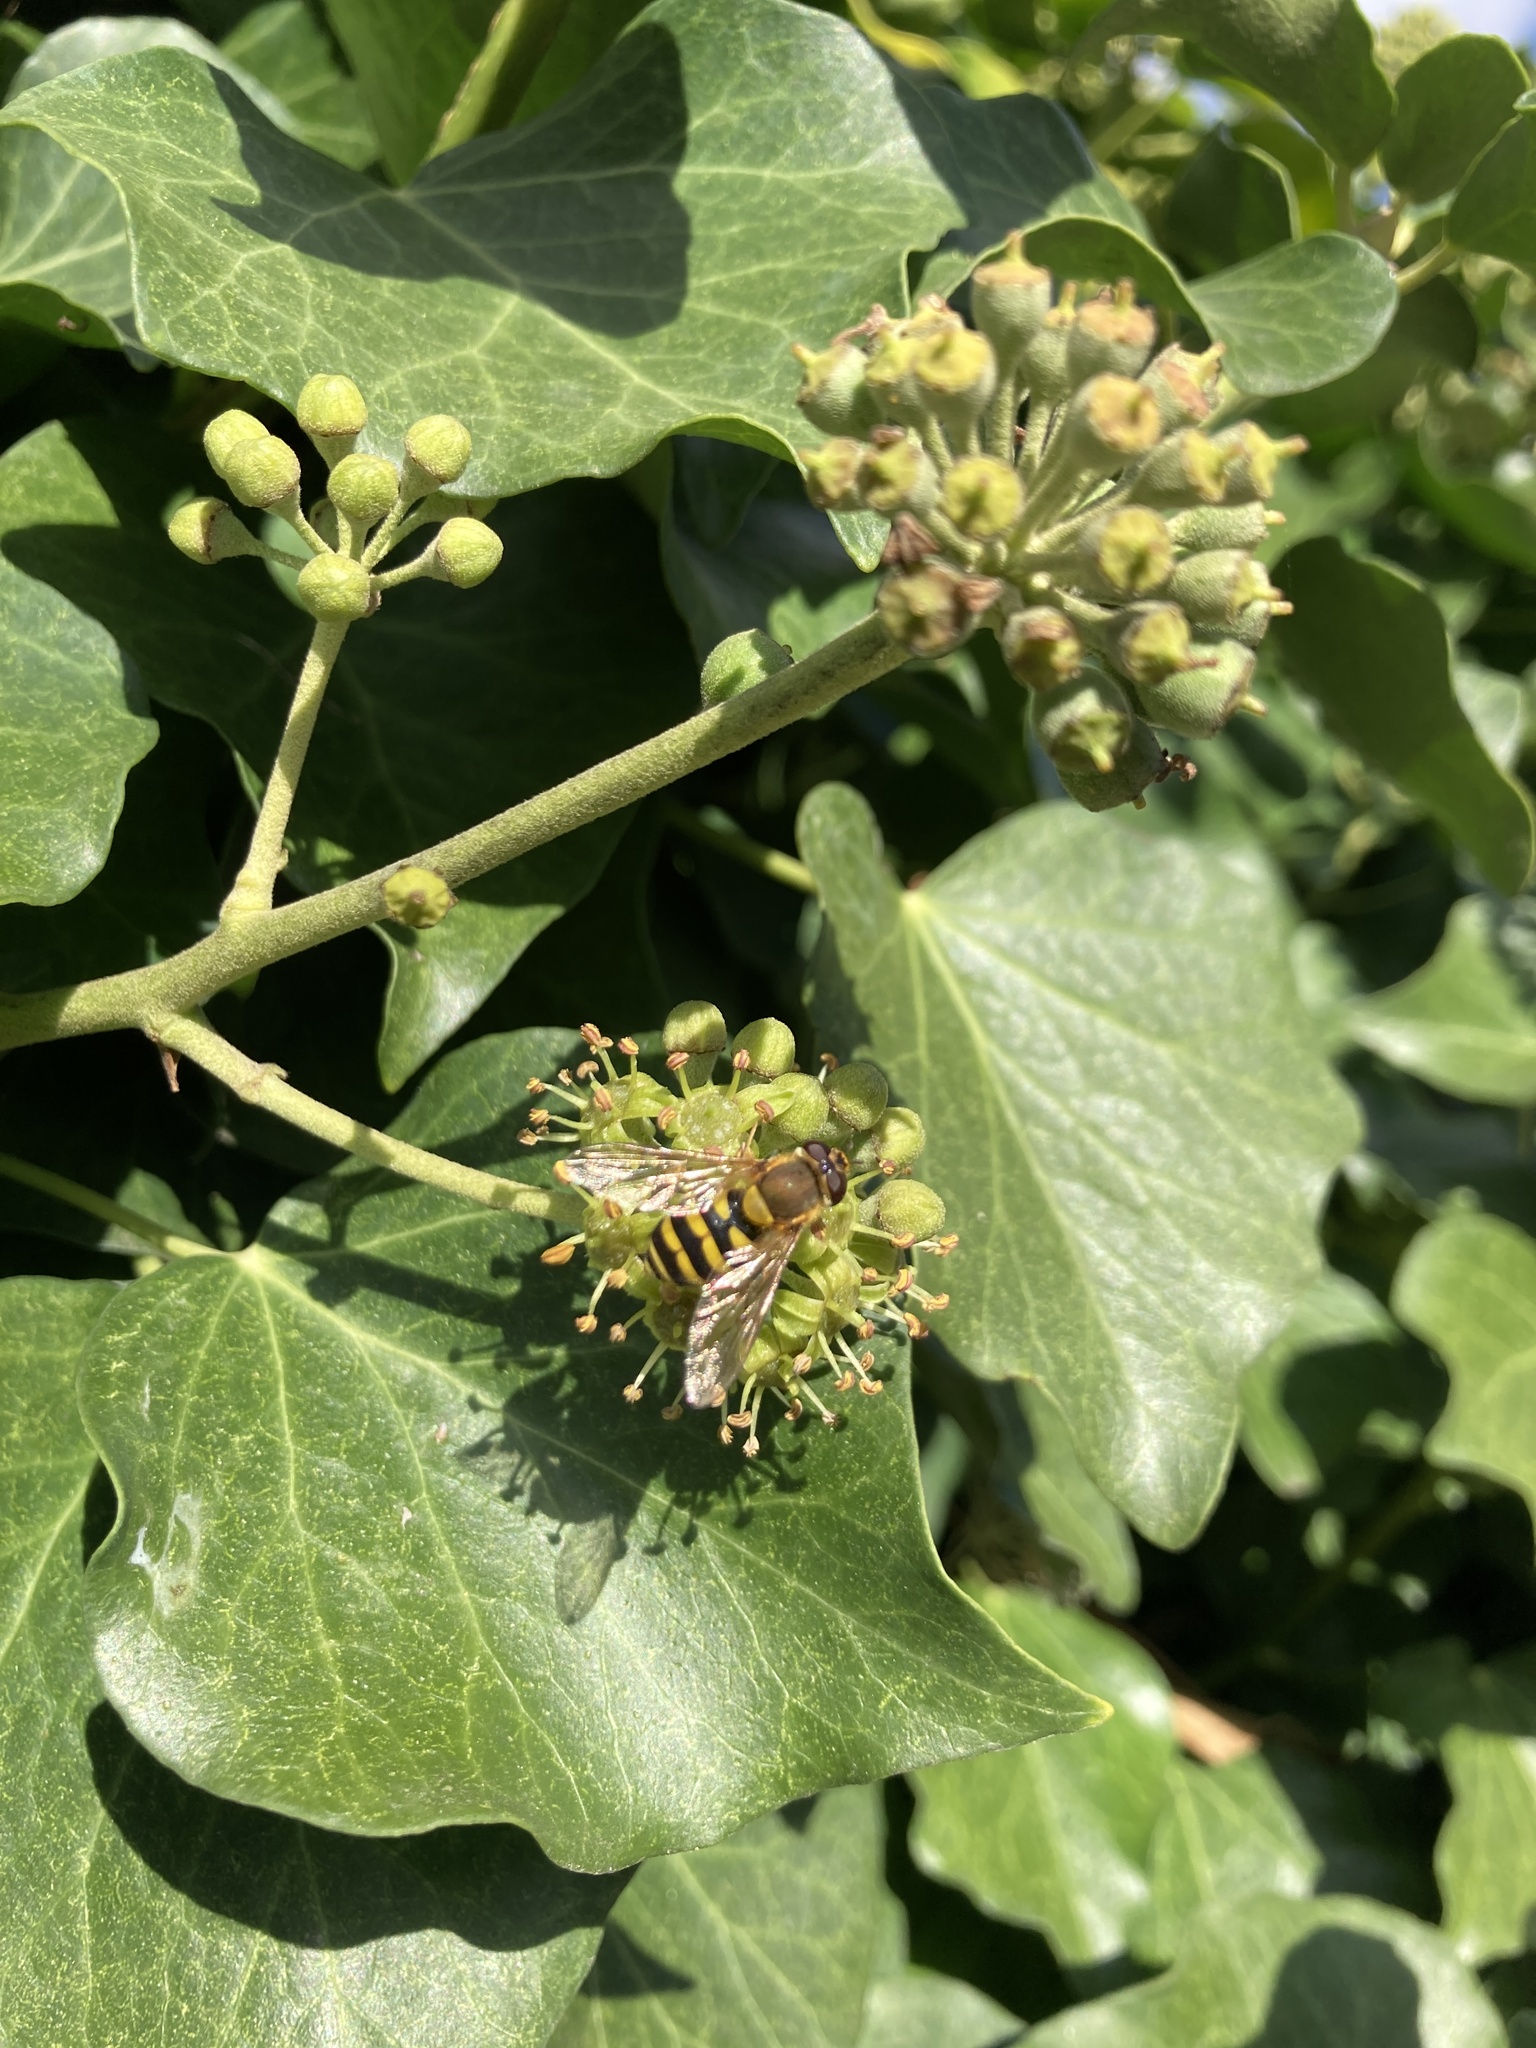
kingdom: Animalia
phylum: Arthropoda
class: Insecta
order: Diptera
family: Syrphidae
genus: Syrphus
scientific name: Syrphus
